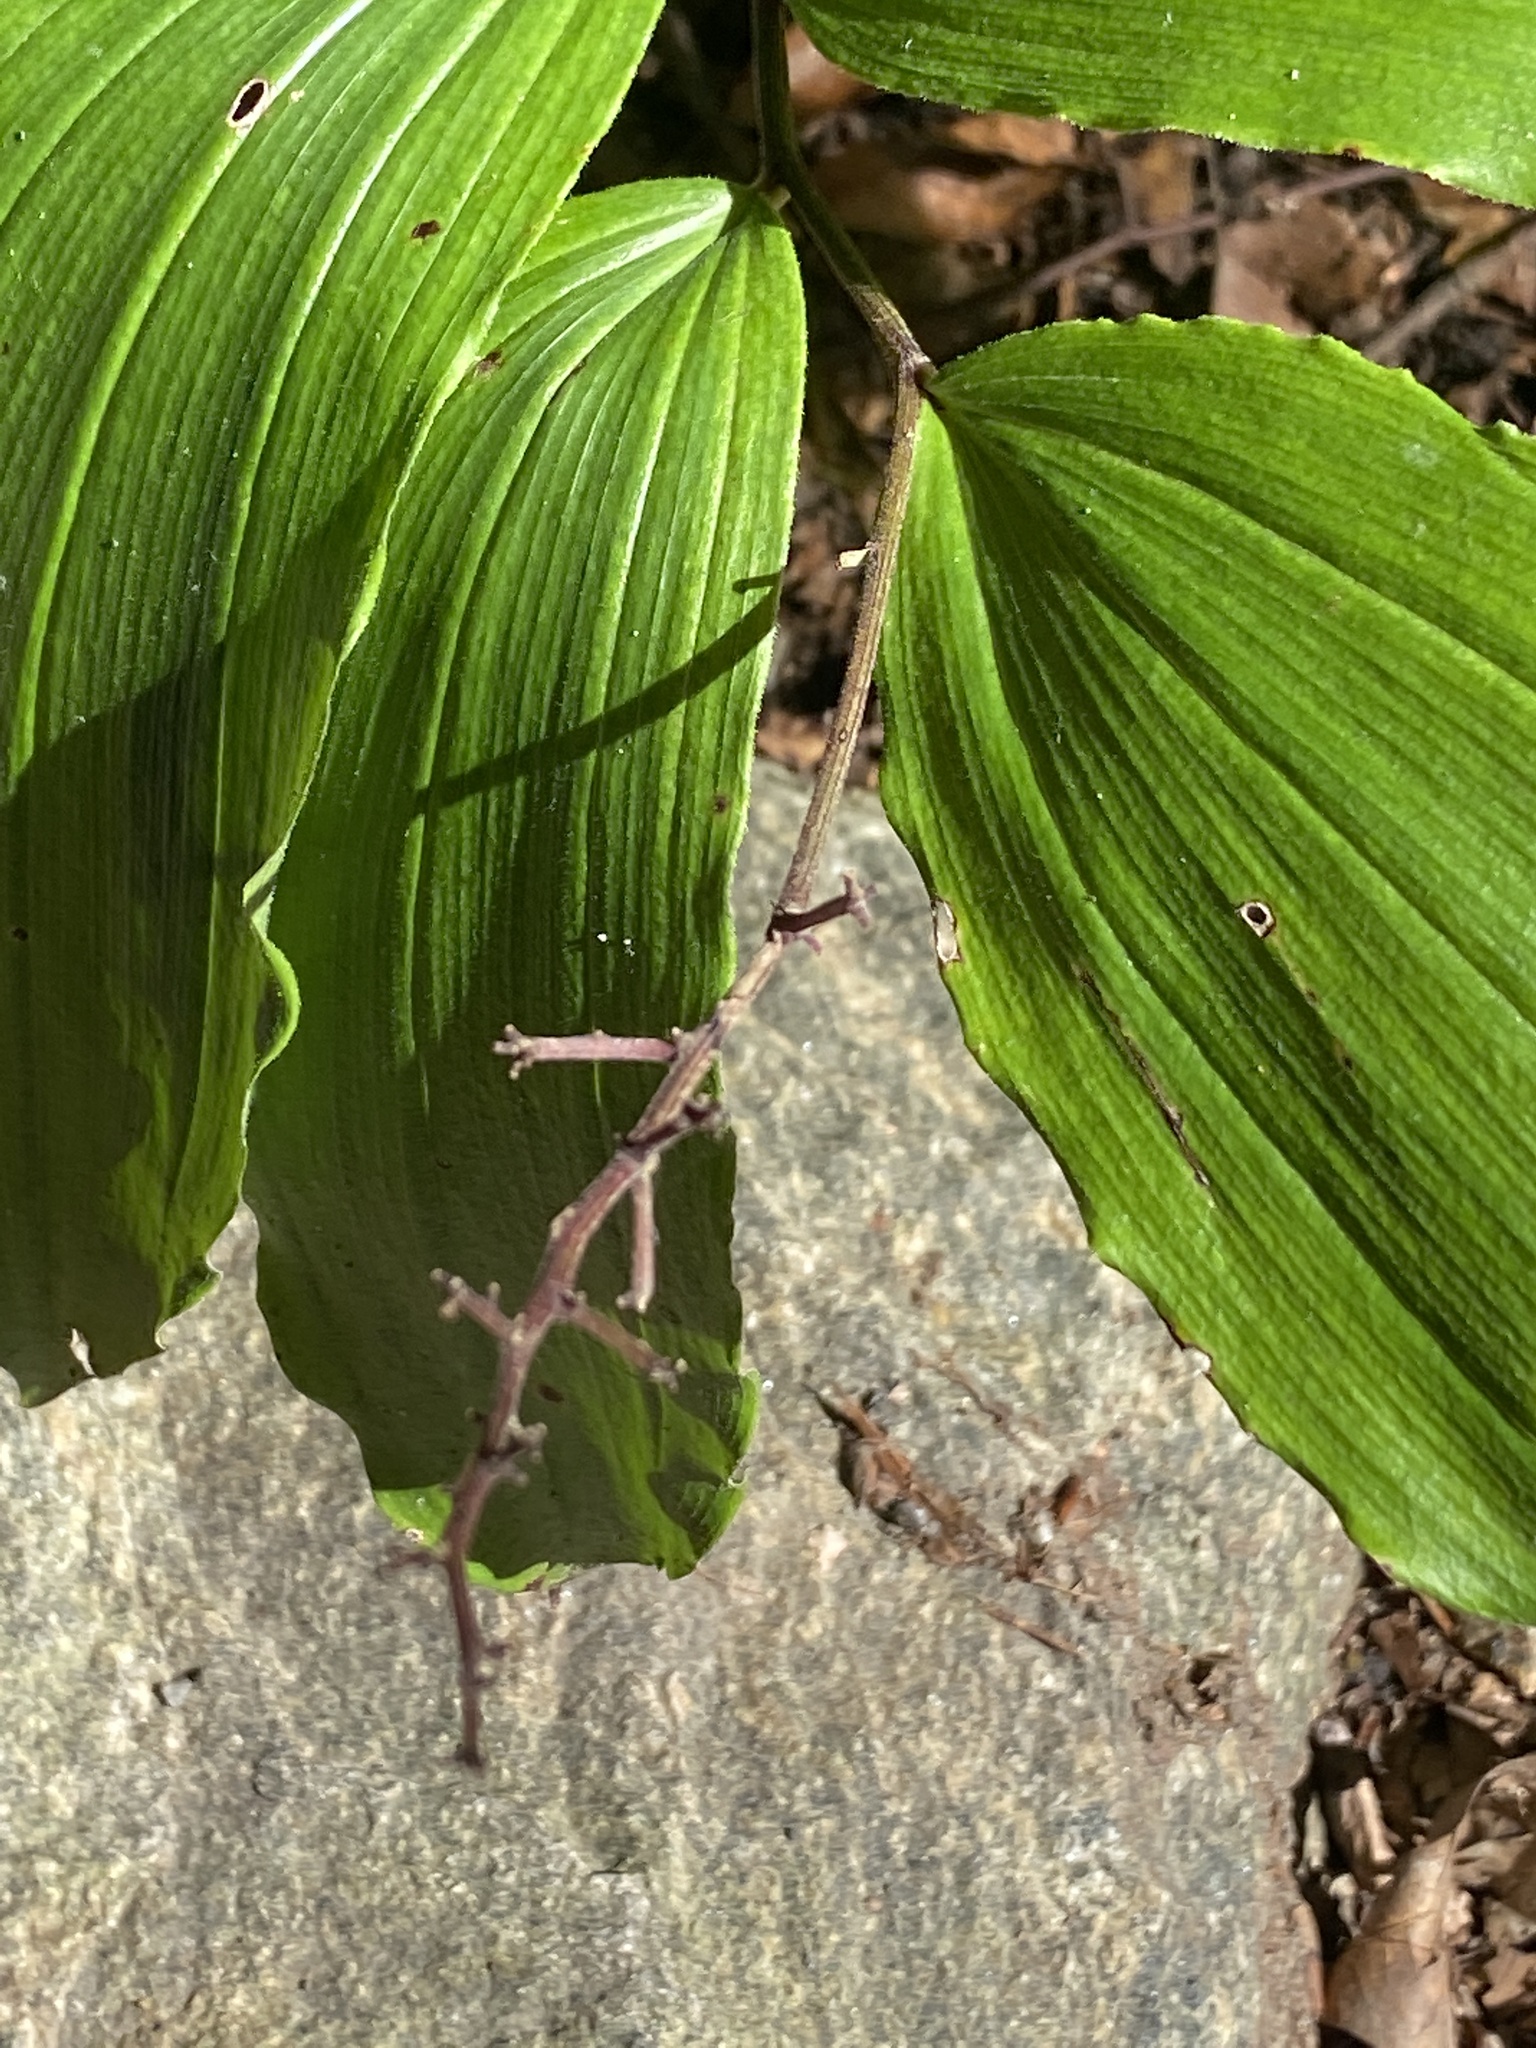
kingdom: Plantae
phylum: Tracheophyta
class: Liliopsida
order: Asparagales
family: Asparagaceae
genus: Maianthemum
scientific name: Maianthemum racemosum
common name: False spikenard
